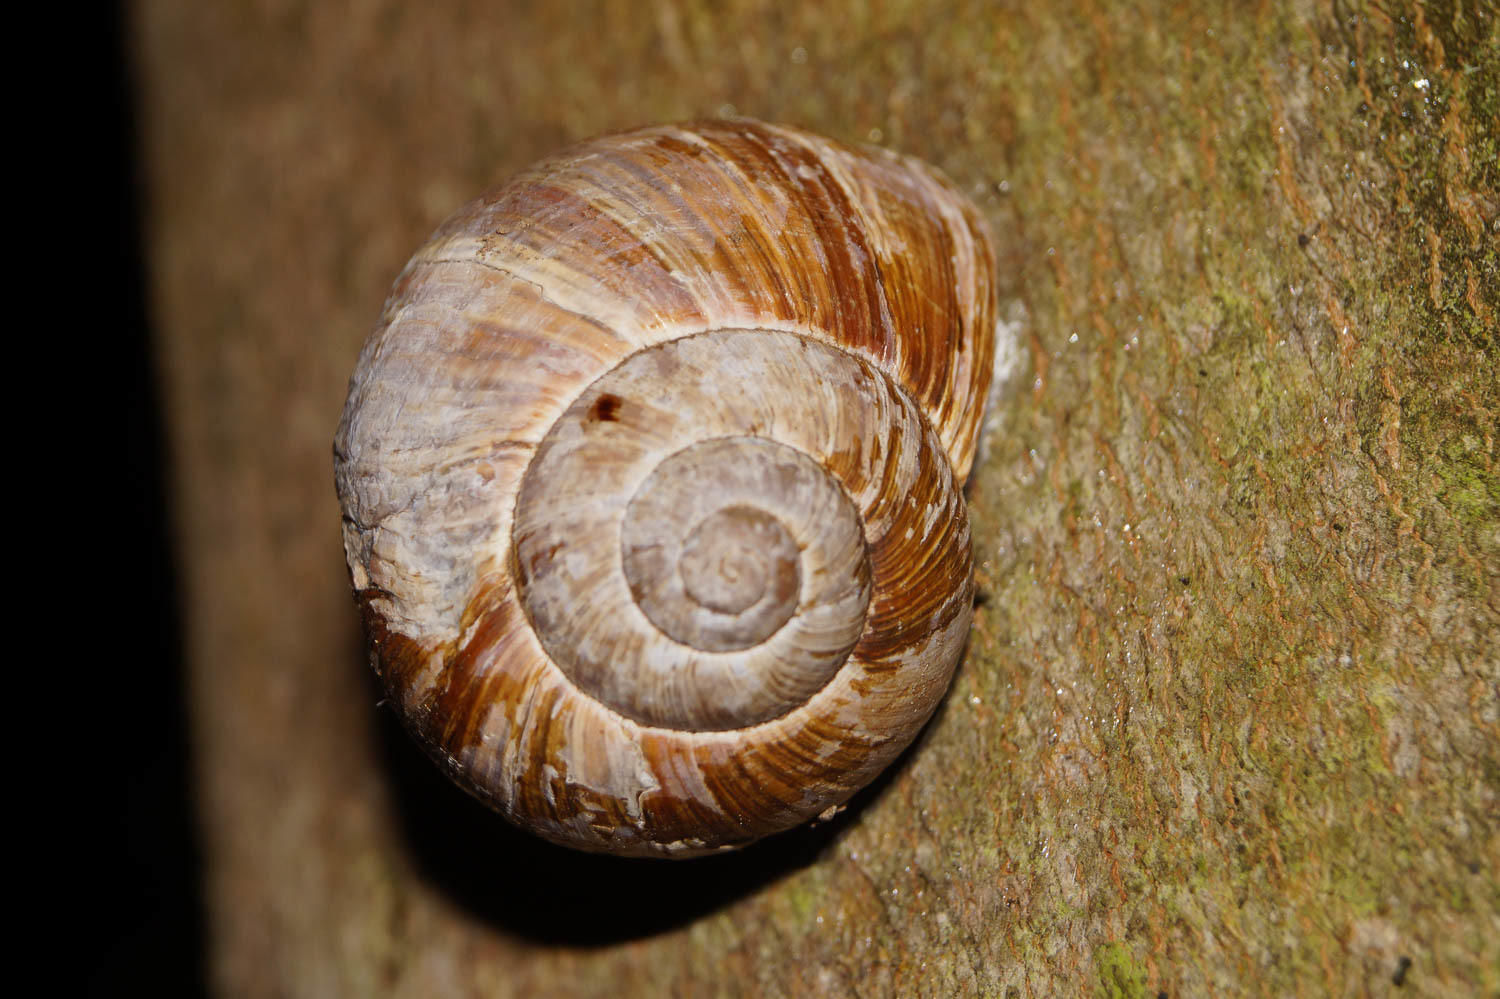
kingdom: Animalia
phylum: Mollusca
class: Gastropoda
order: Stylommatophora
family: Helicidae
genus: Helix
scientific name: Helix pomatia
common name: Roman snail
